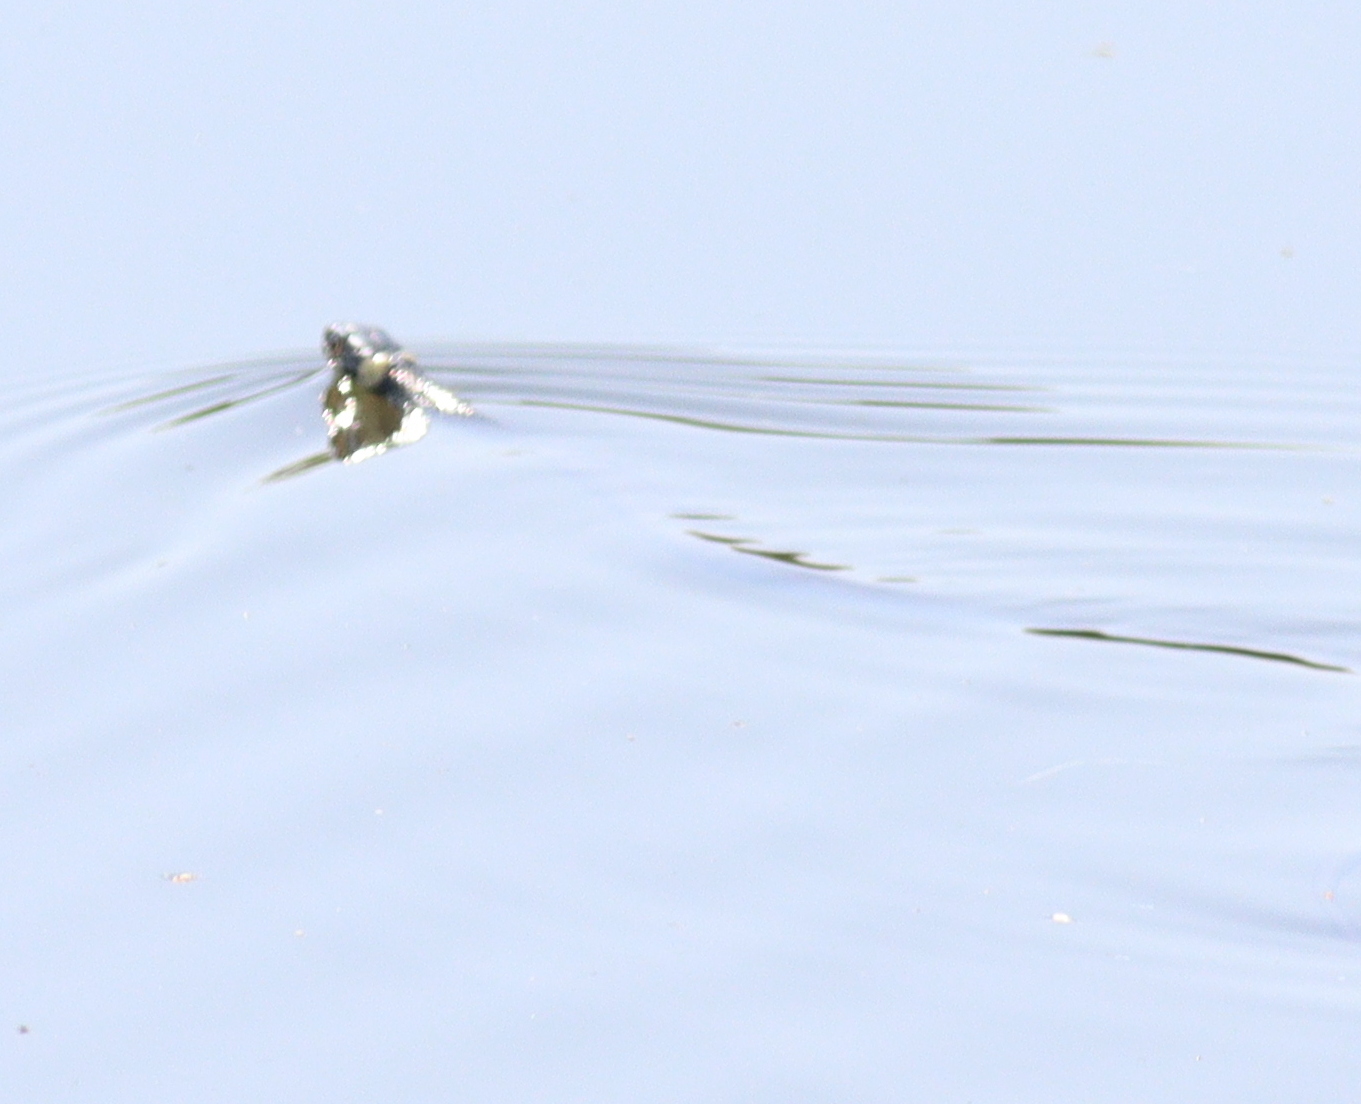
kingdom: Animalia
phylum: Chordata
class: Squamata
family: Colubridae
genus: Natrix
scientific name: Natrix natrix
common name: Grass snake
